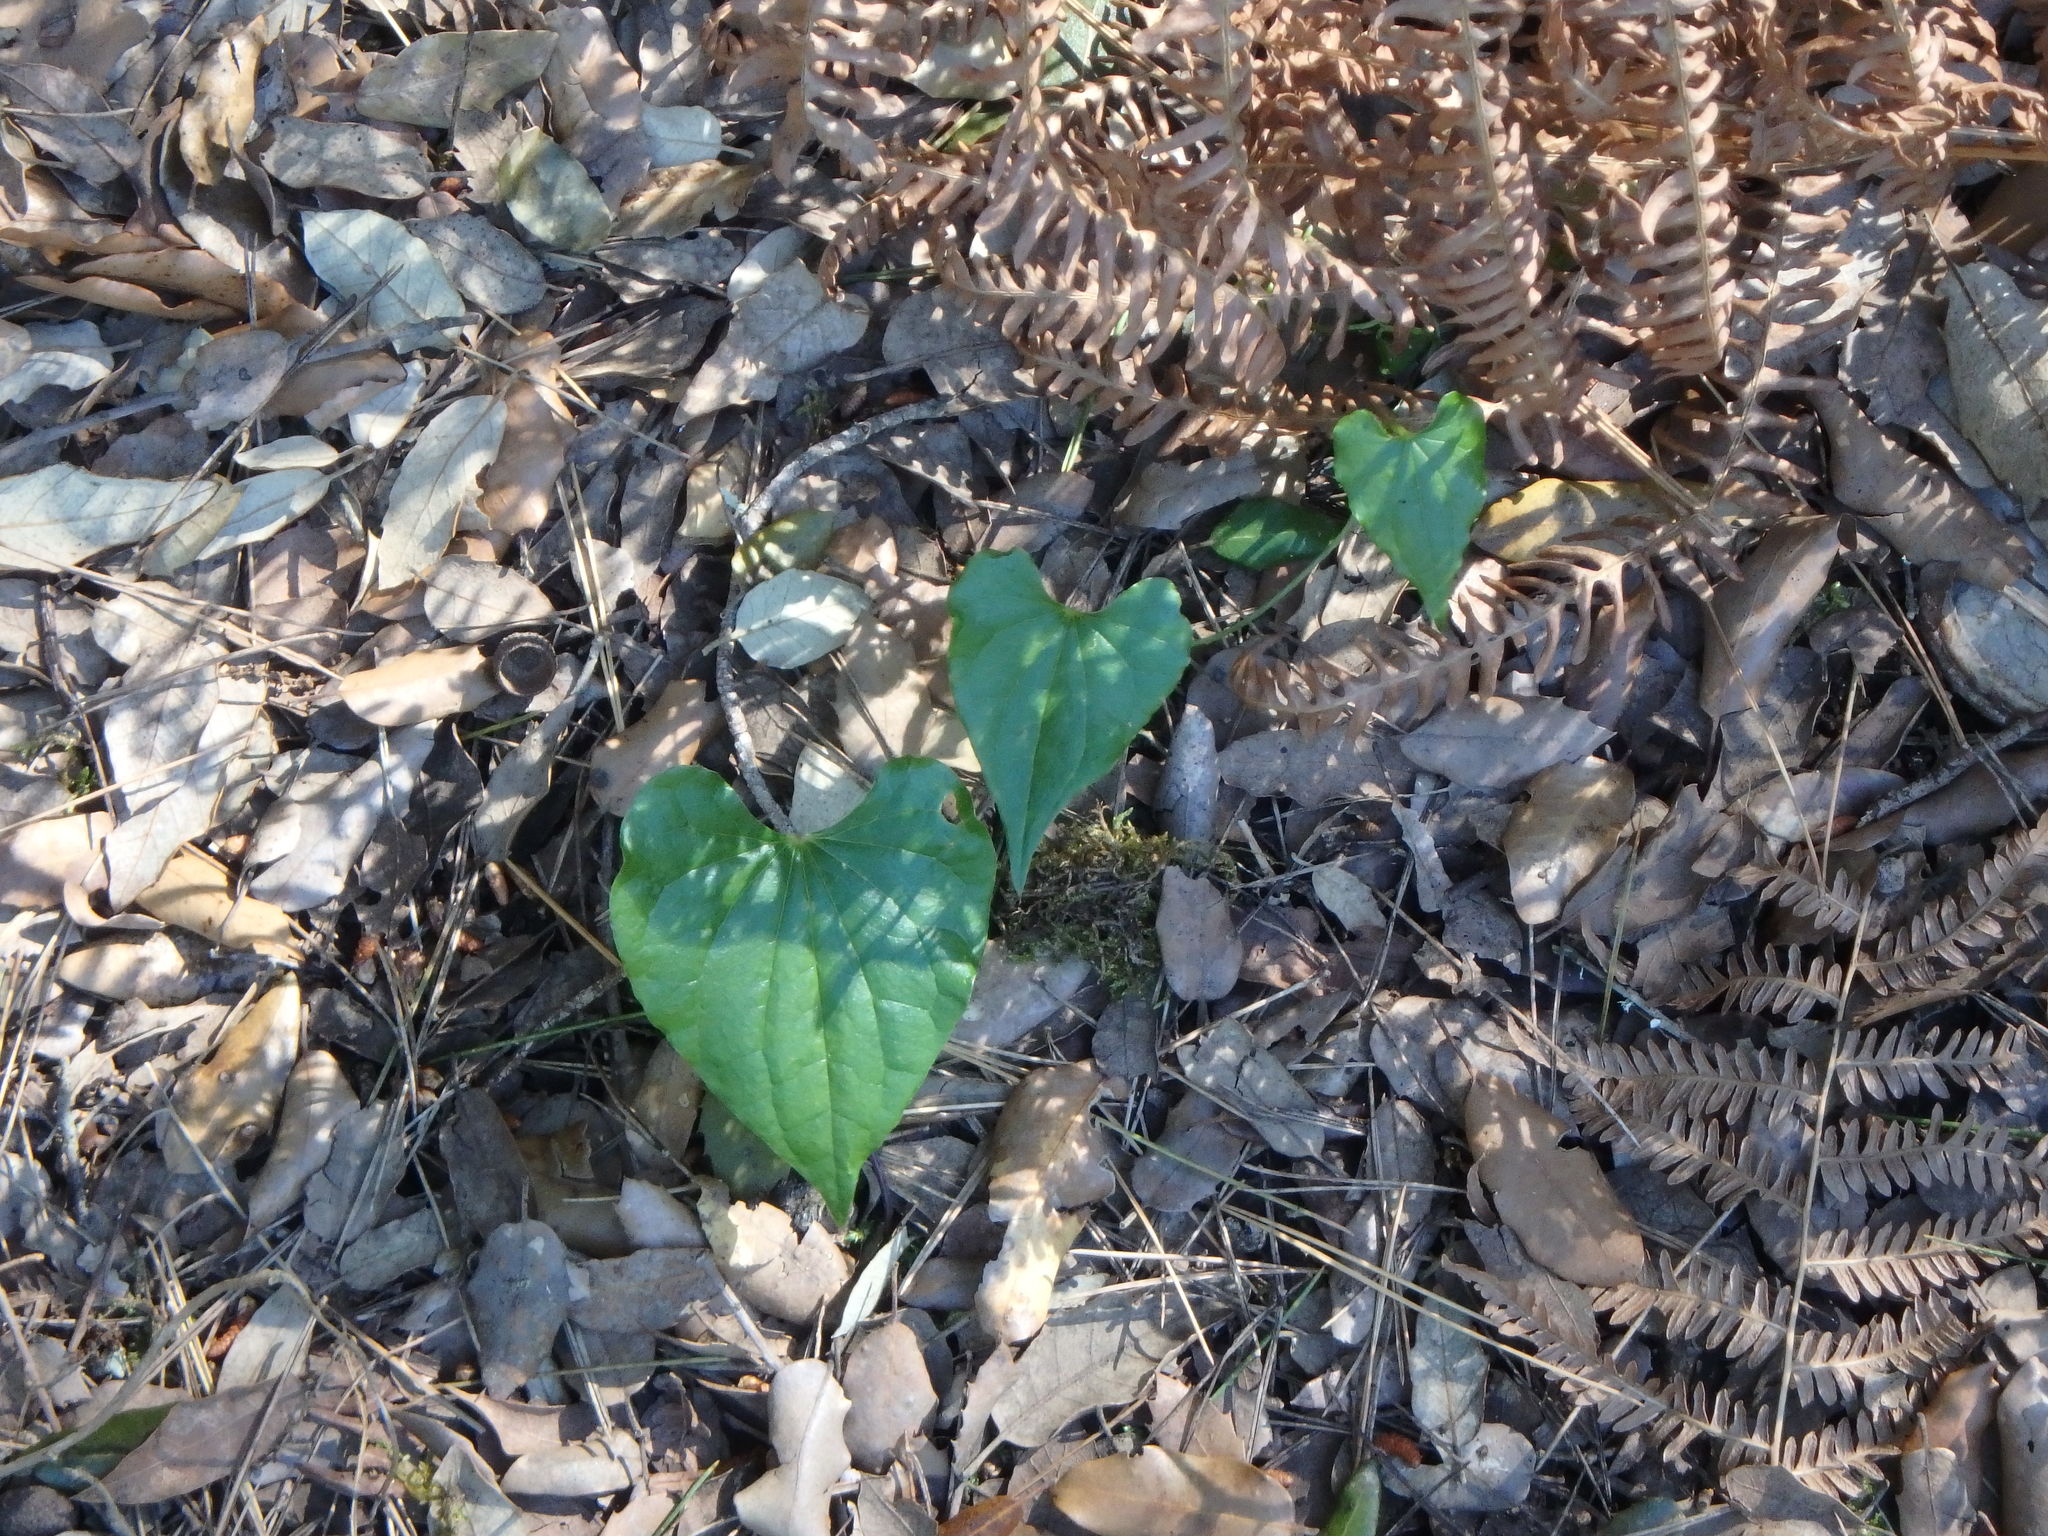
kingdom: Plantae
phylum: Tracheophyta
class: Liliopsida
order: Dioscoreales
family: Dioscoreaceae
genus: Dioscorea
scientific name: Dioscorea communis
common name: Black-bindweed
